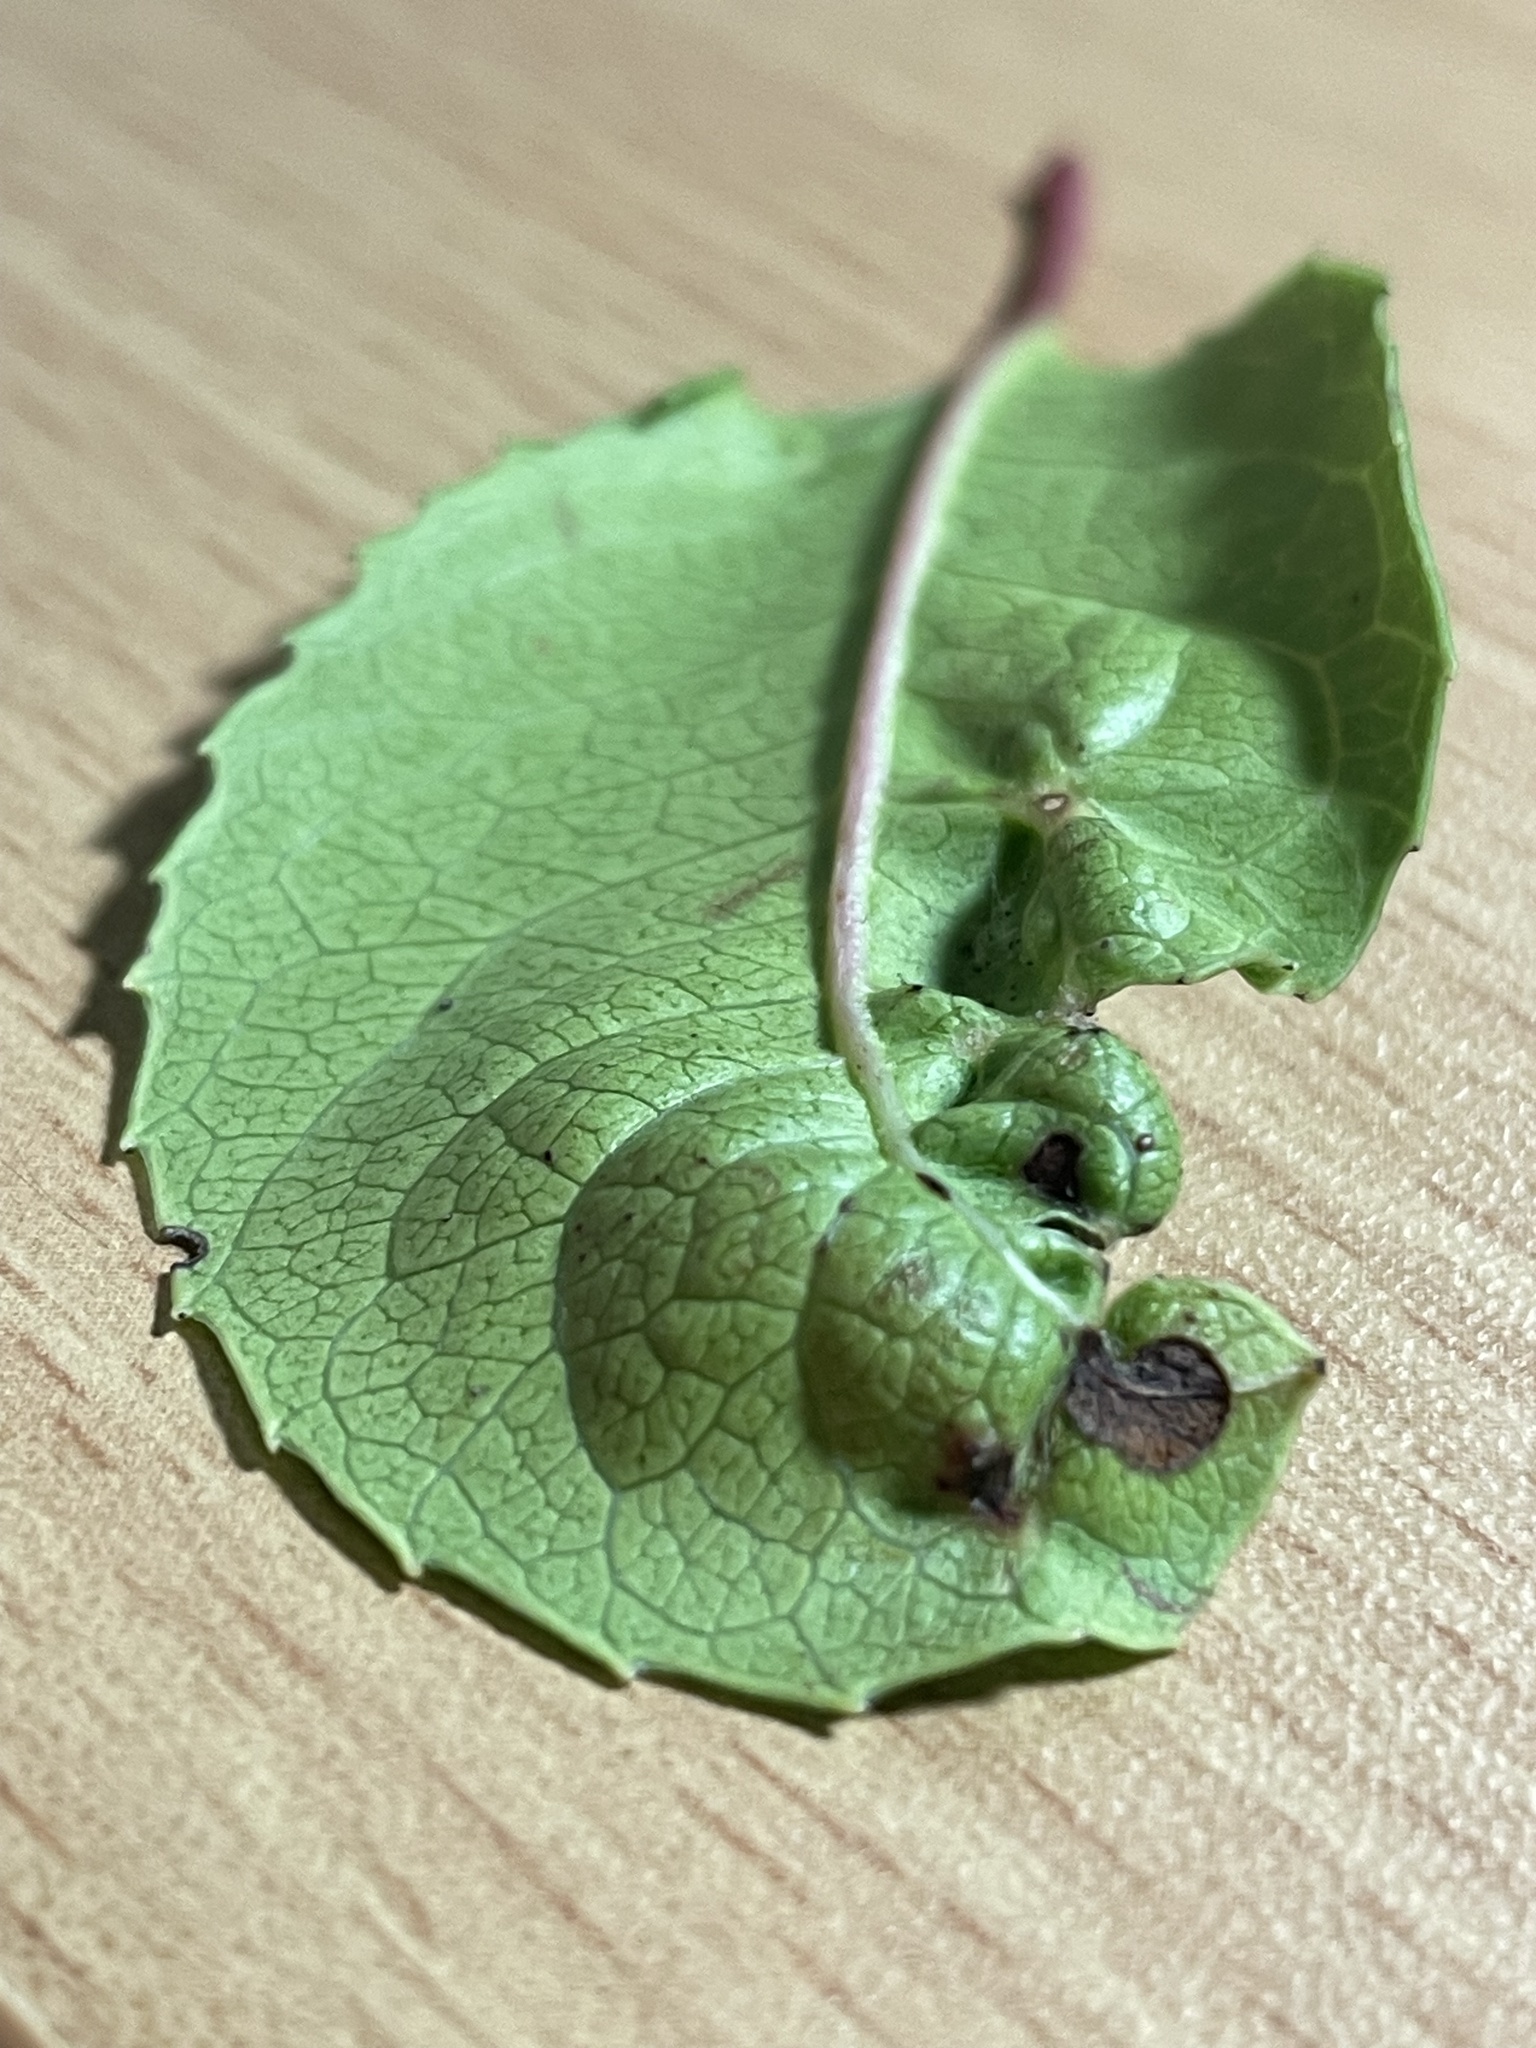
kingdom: Plantae
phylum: Tracheophyta
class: Magnoliopsida
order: Rosales
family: Rosaceae
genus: Heteromeles
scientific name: Heteromeles arbutifolia
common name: California-holly
